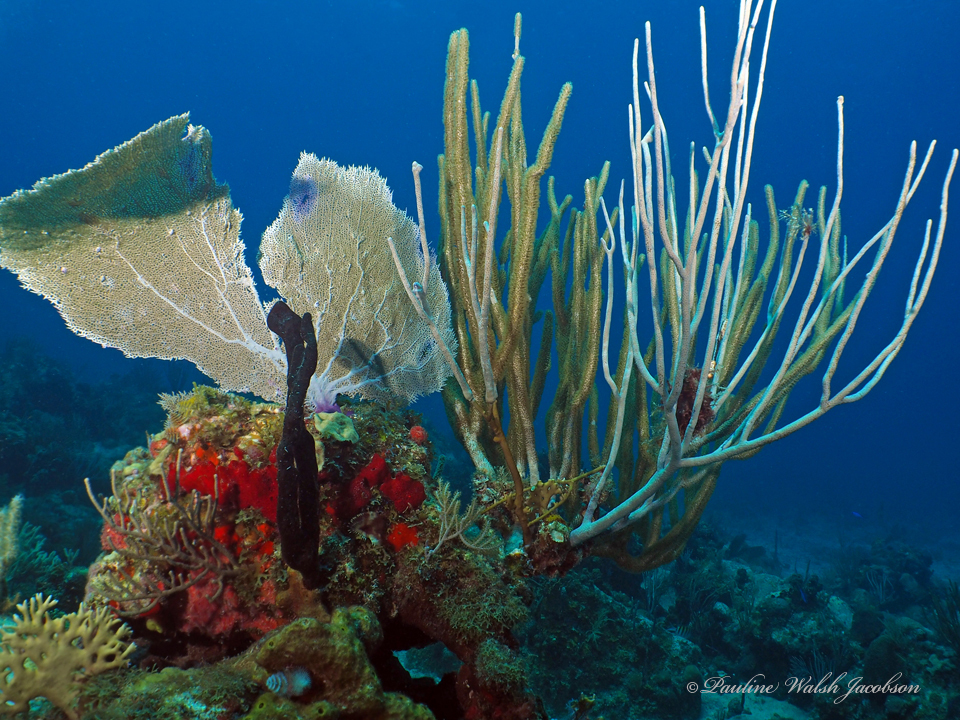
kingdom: Animalia
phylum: Cnidaria
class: Anthozoa
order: Malacalcyonacea
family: Gorgoniidae
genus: Gorgonia
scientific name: Gorgonia ventalina
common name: Common sea fan
